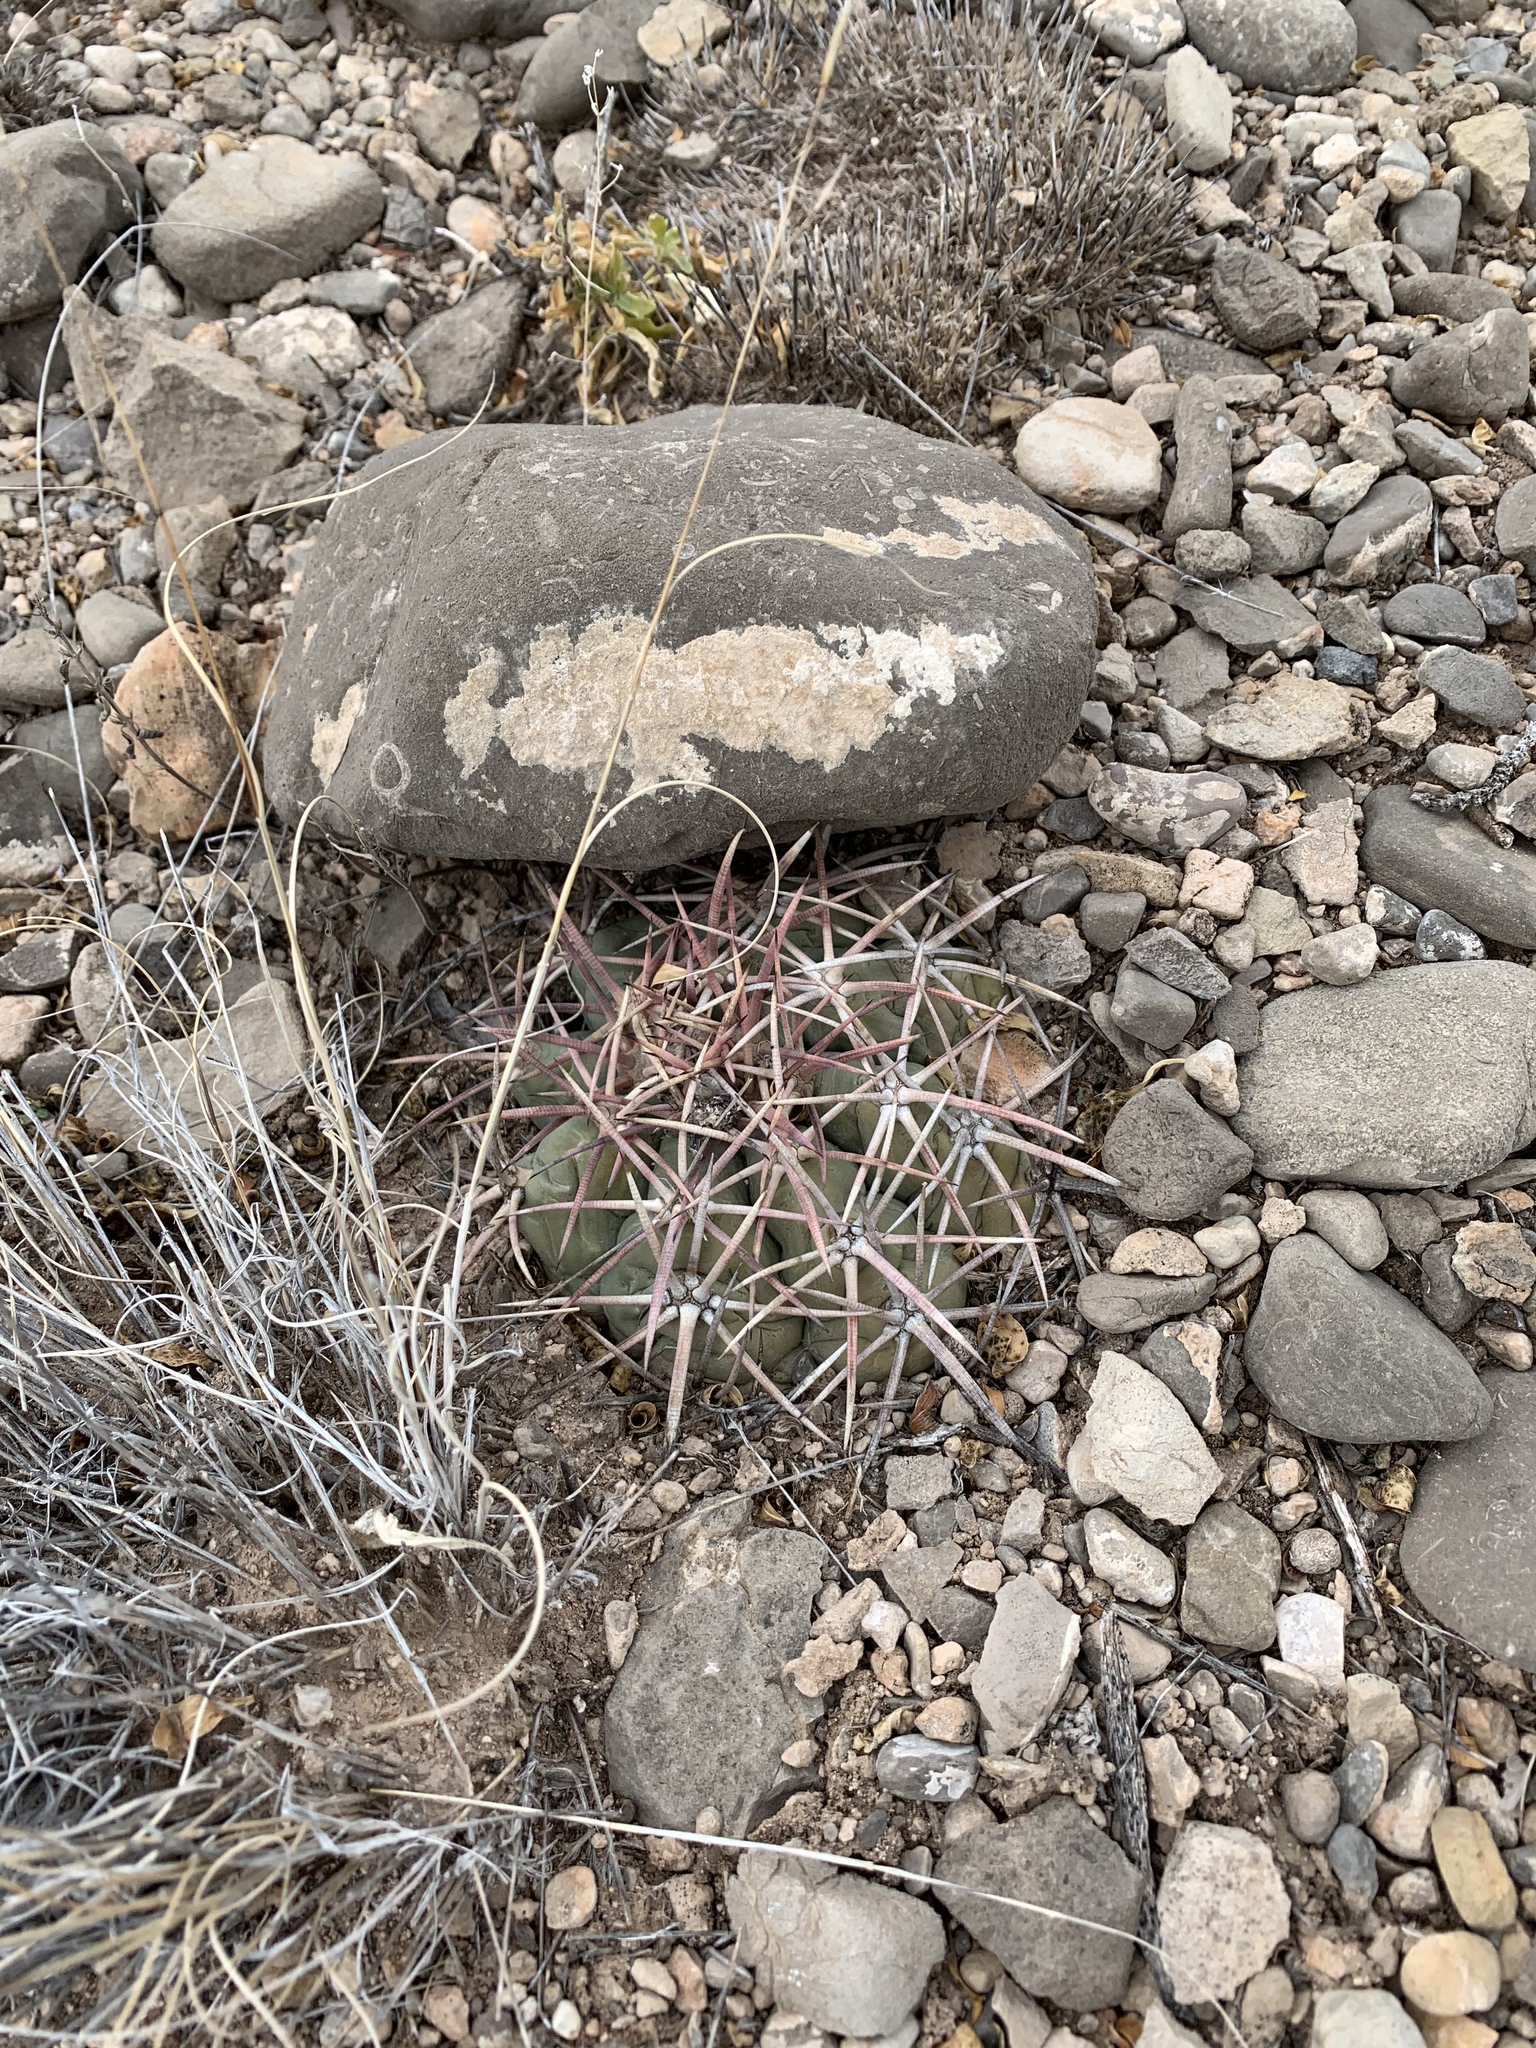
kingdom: Plantae
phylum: Tracheophyta
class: Magnoliopsida
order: Caryophyllales
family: Cactaceae
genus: Echinocactus
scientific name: Echinocactus horizonthalonius
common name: Devilshead
